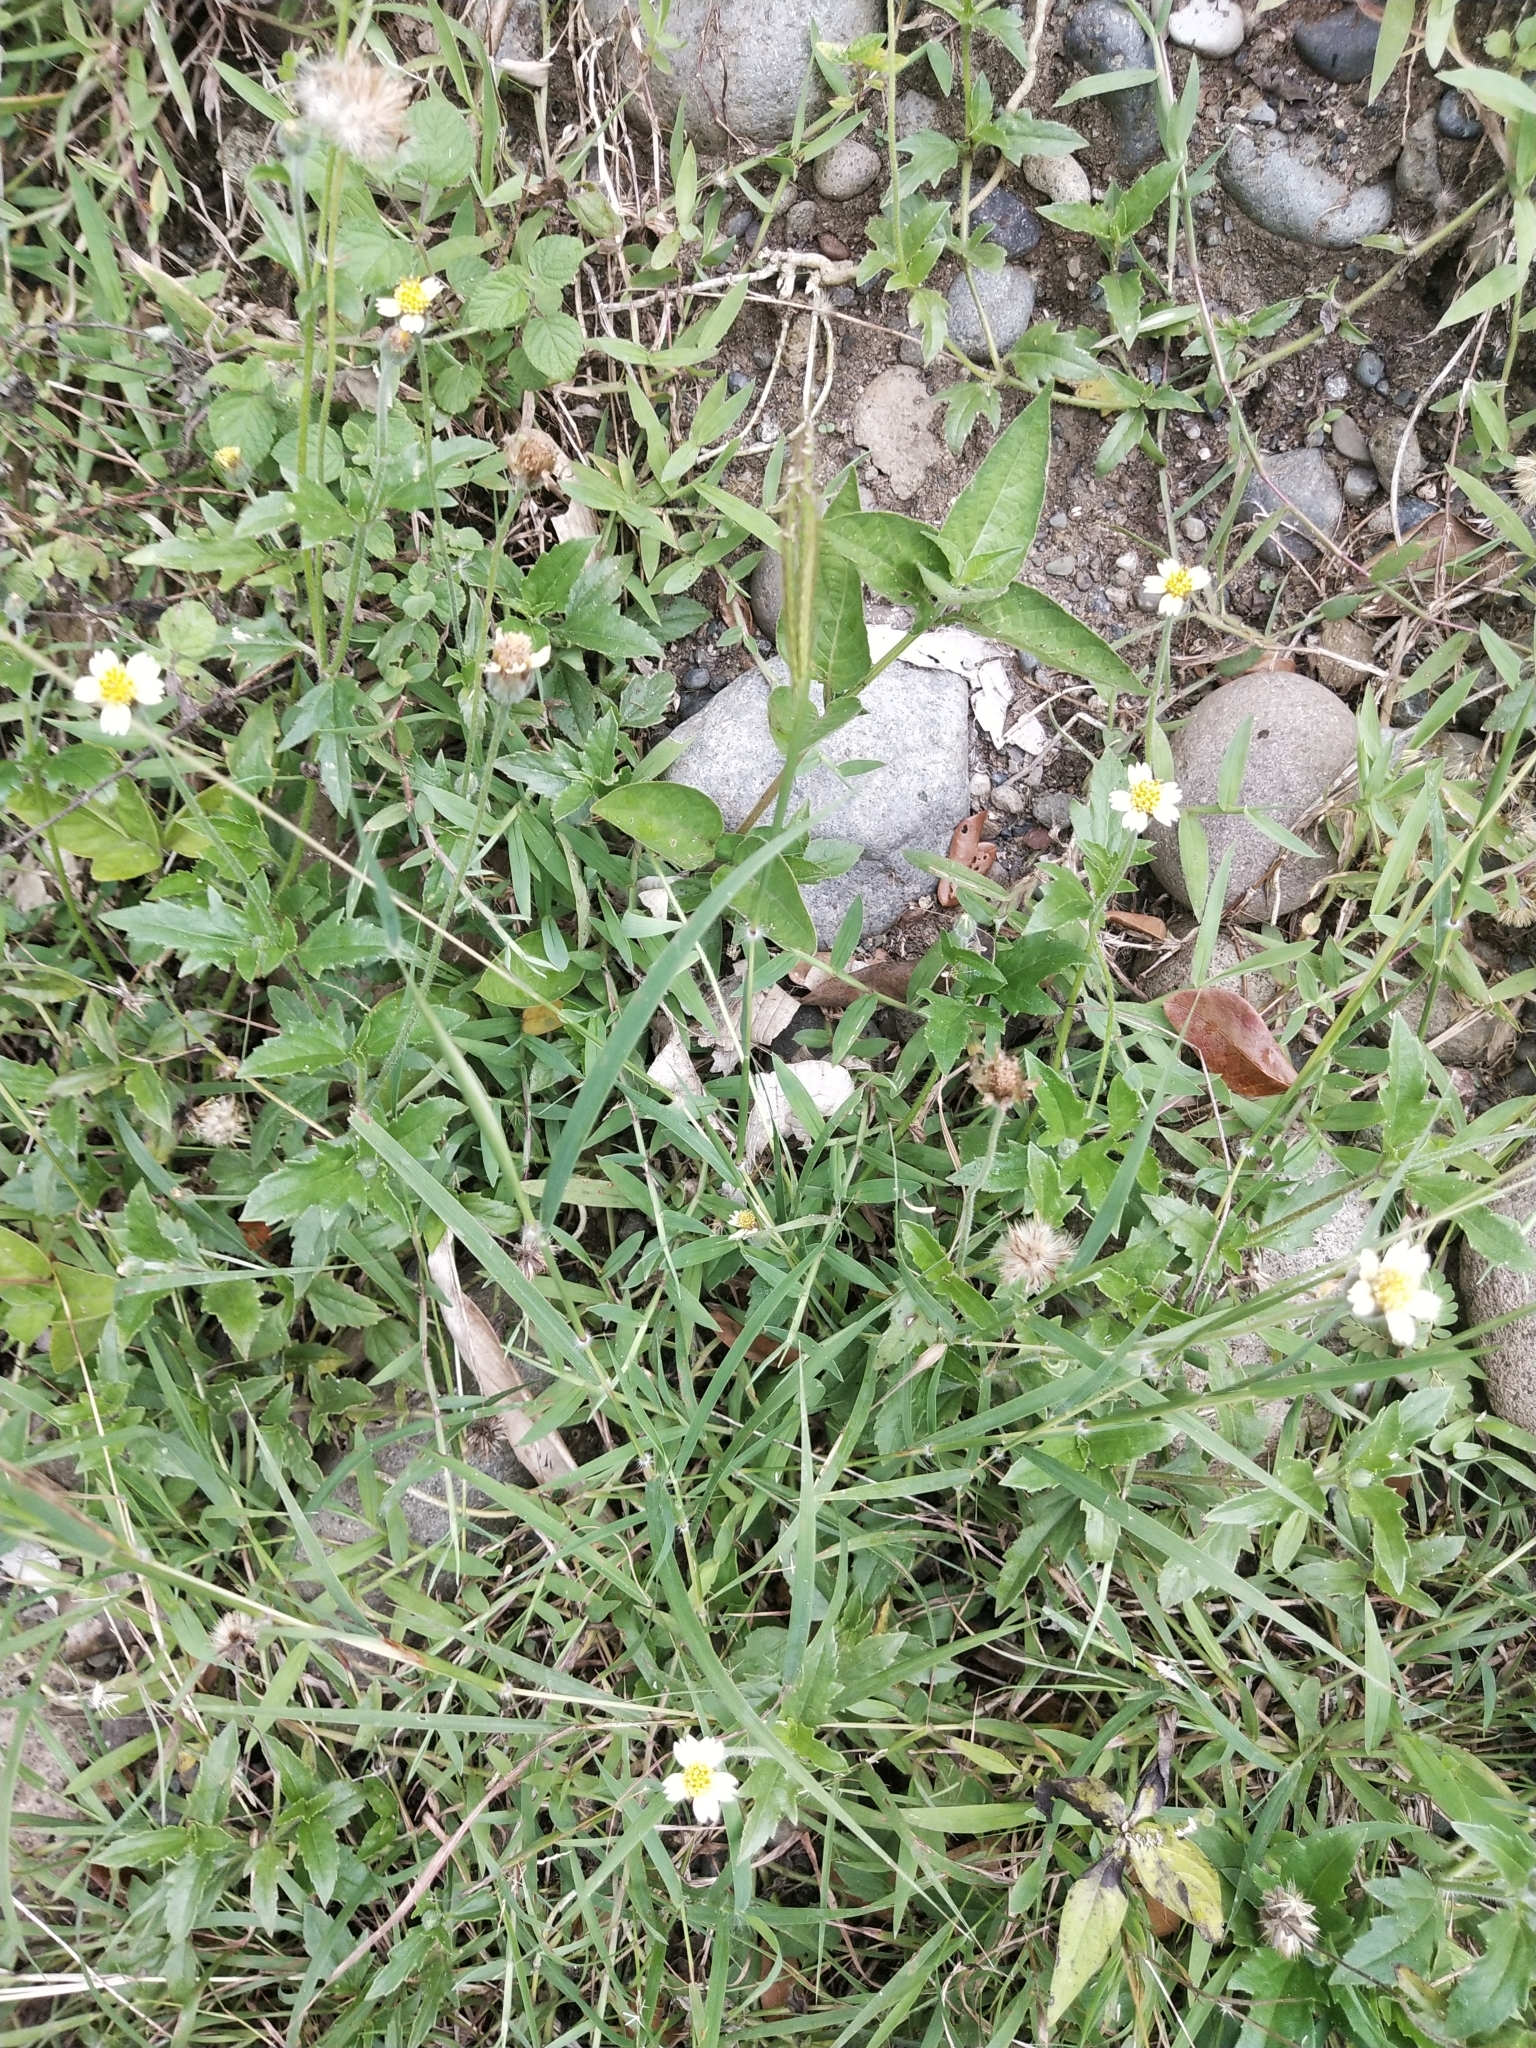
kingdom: Plantae
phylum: Tracheophyta
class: Magnoliopsida
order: Asterales
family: Asteraceae
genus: Tridax
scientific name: Tridax procumbens
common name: Coatbuttons
